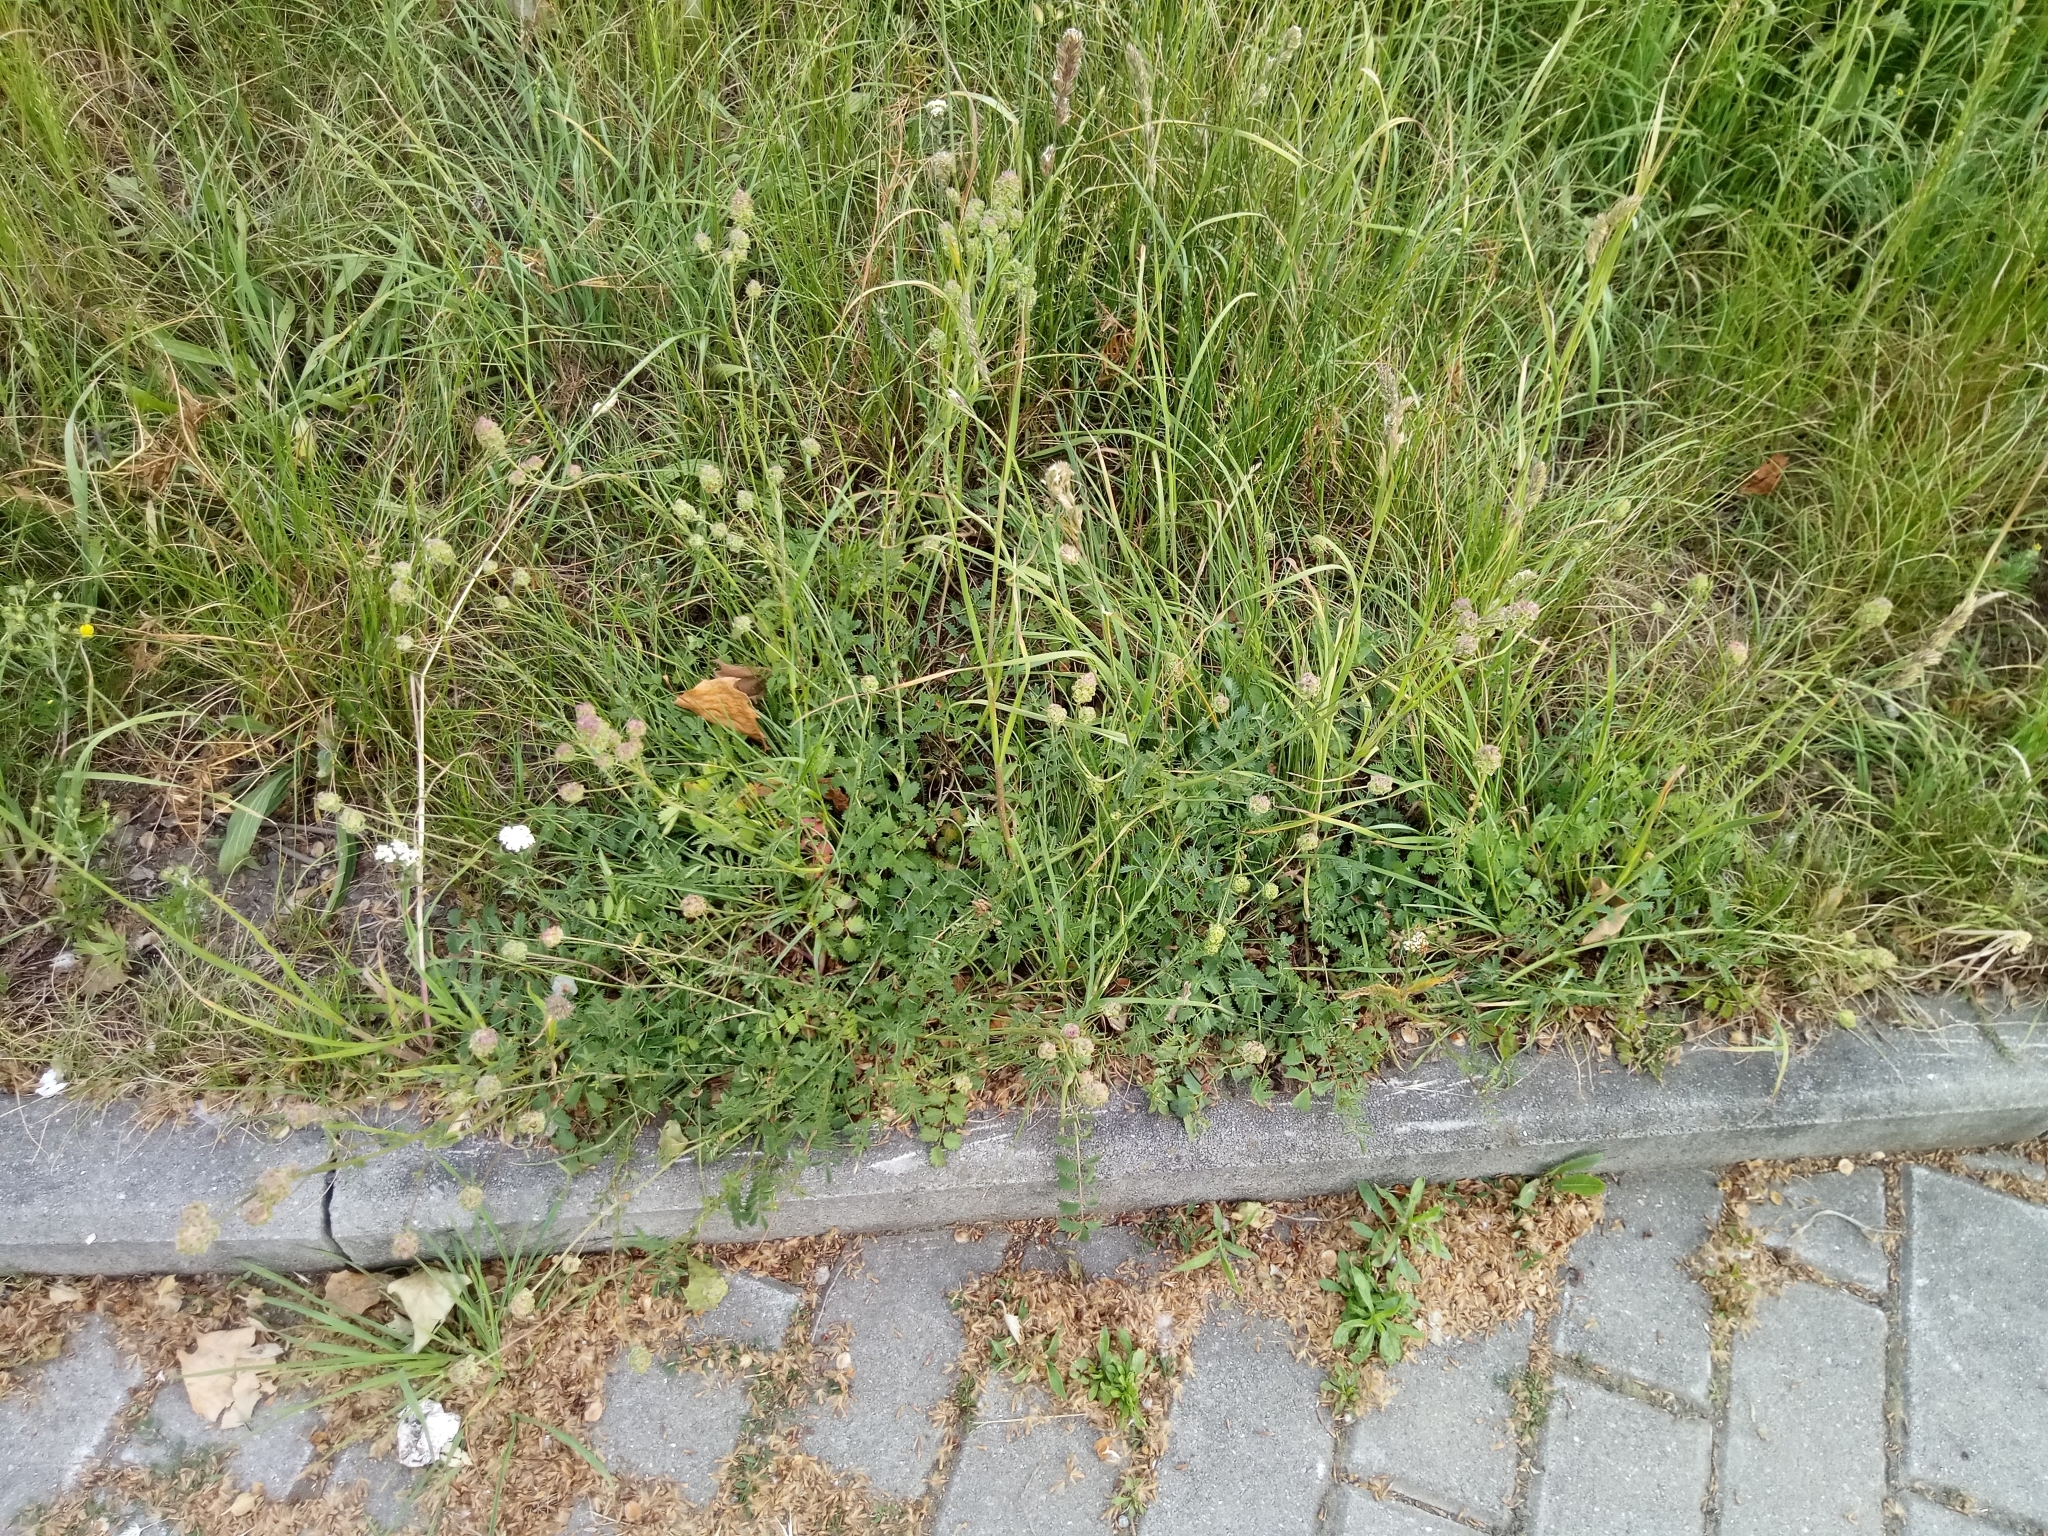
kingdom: Plantae
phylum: Tracheophyta
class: Magnoliopsida
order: Rosales
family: Rosaceae
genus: Poterium
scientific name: Poterium sanguisorba
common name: Salad burnet
